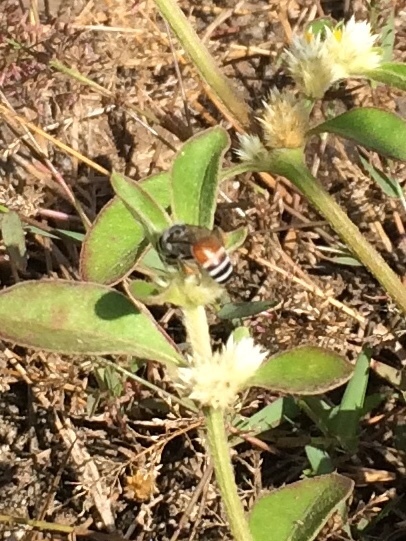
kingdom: Animalia
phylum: Arthropoda
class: Insecta
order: Hymenoptera
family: Apidae
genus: Apis
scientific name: Apis florea
